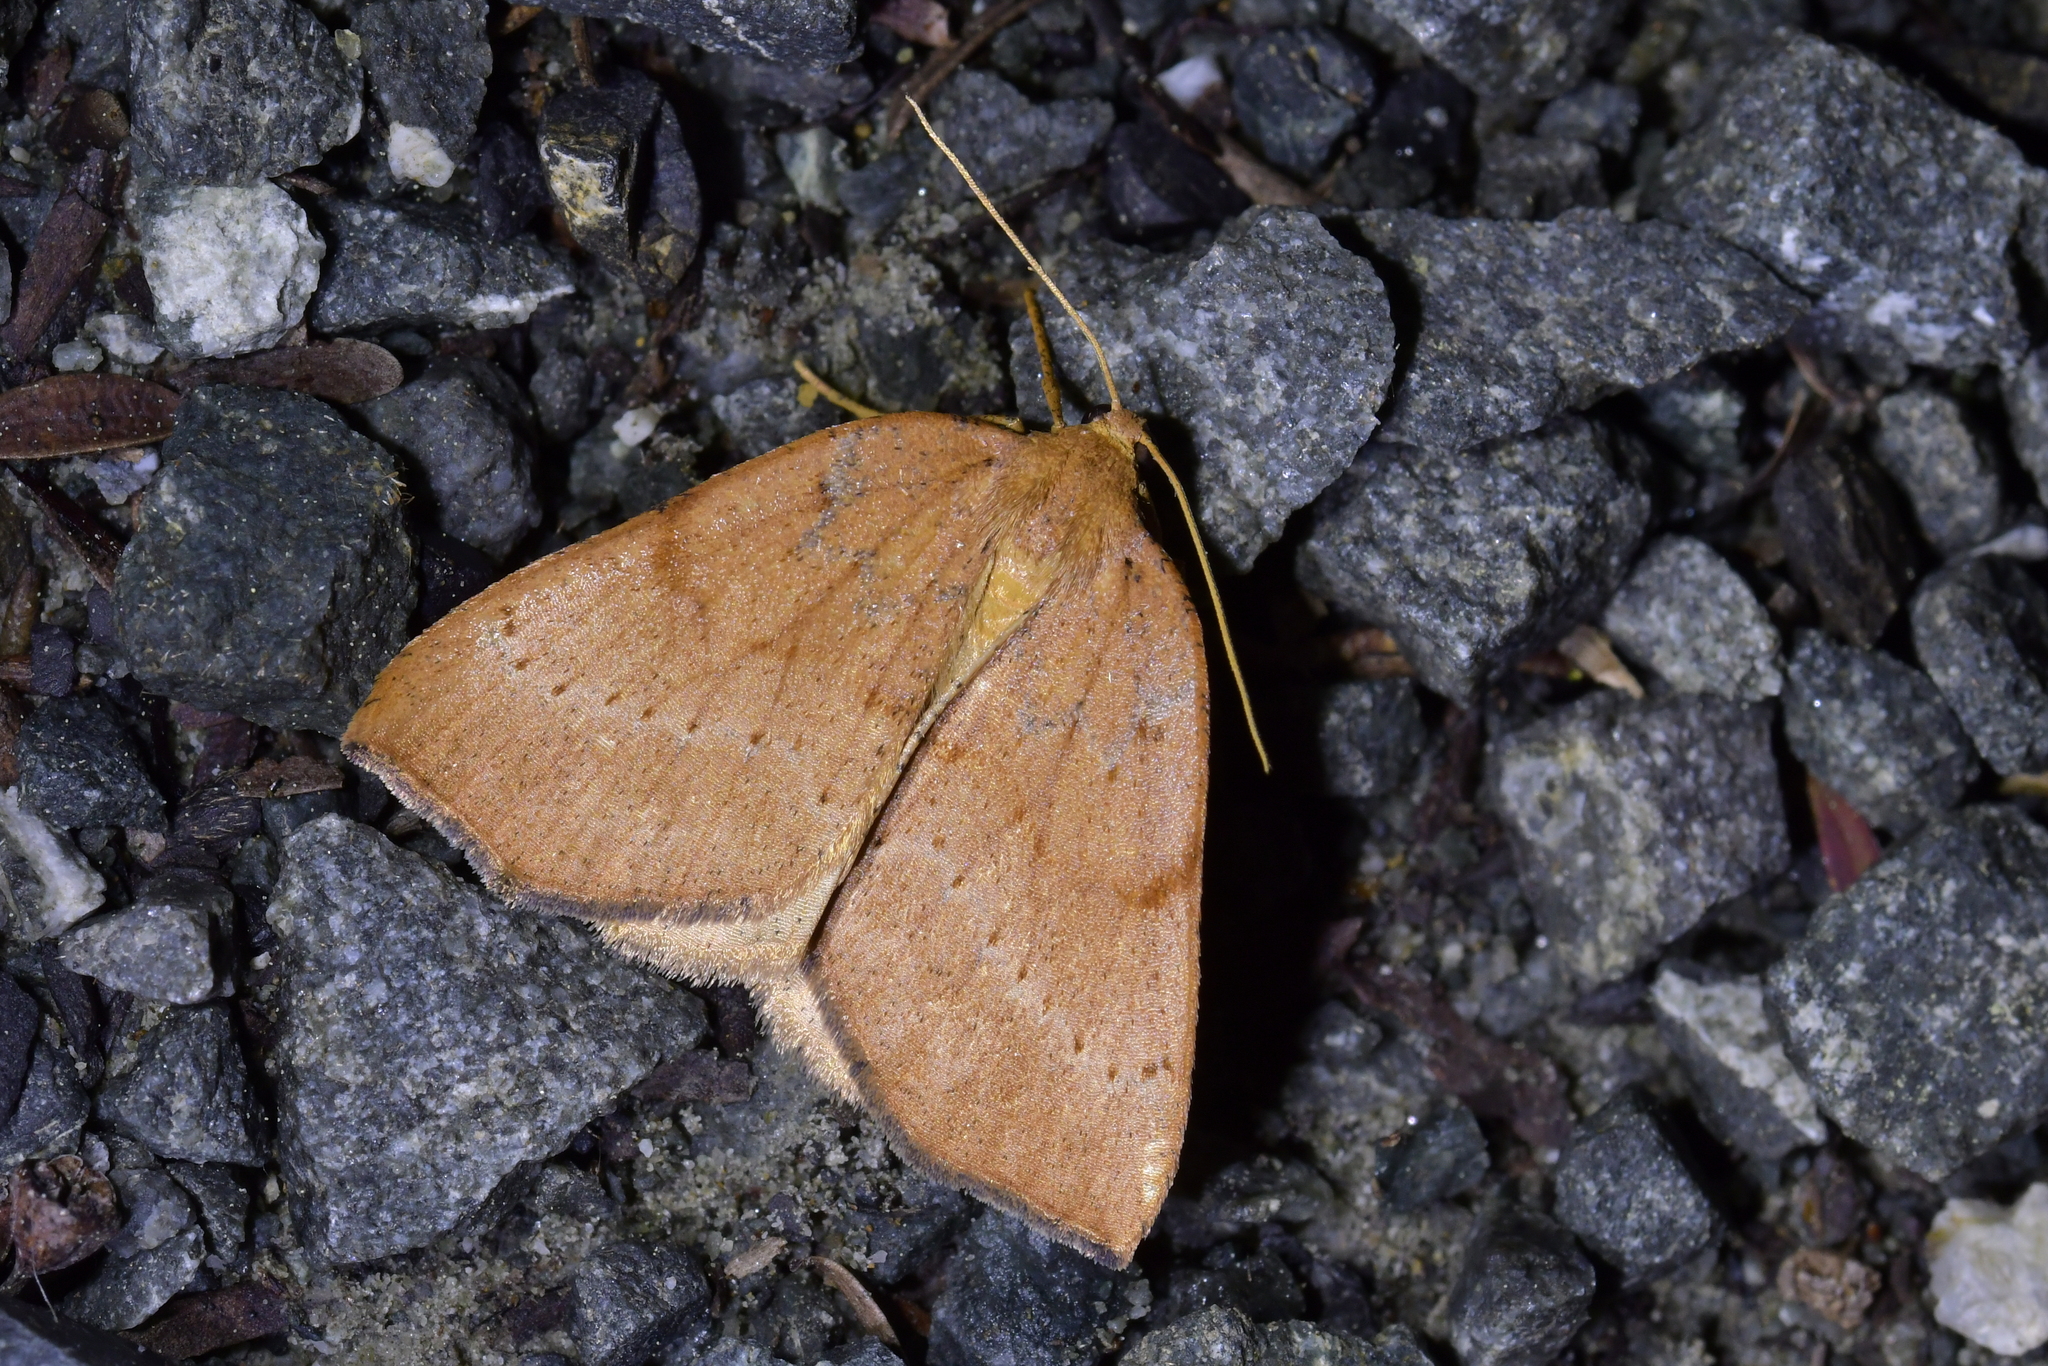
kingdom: Animalia
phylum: Arthropoda
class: Insecta
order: Lepidoptera
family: Geometridae
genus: Sestra
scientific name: Sestra humeraria
